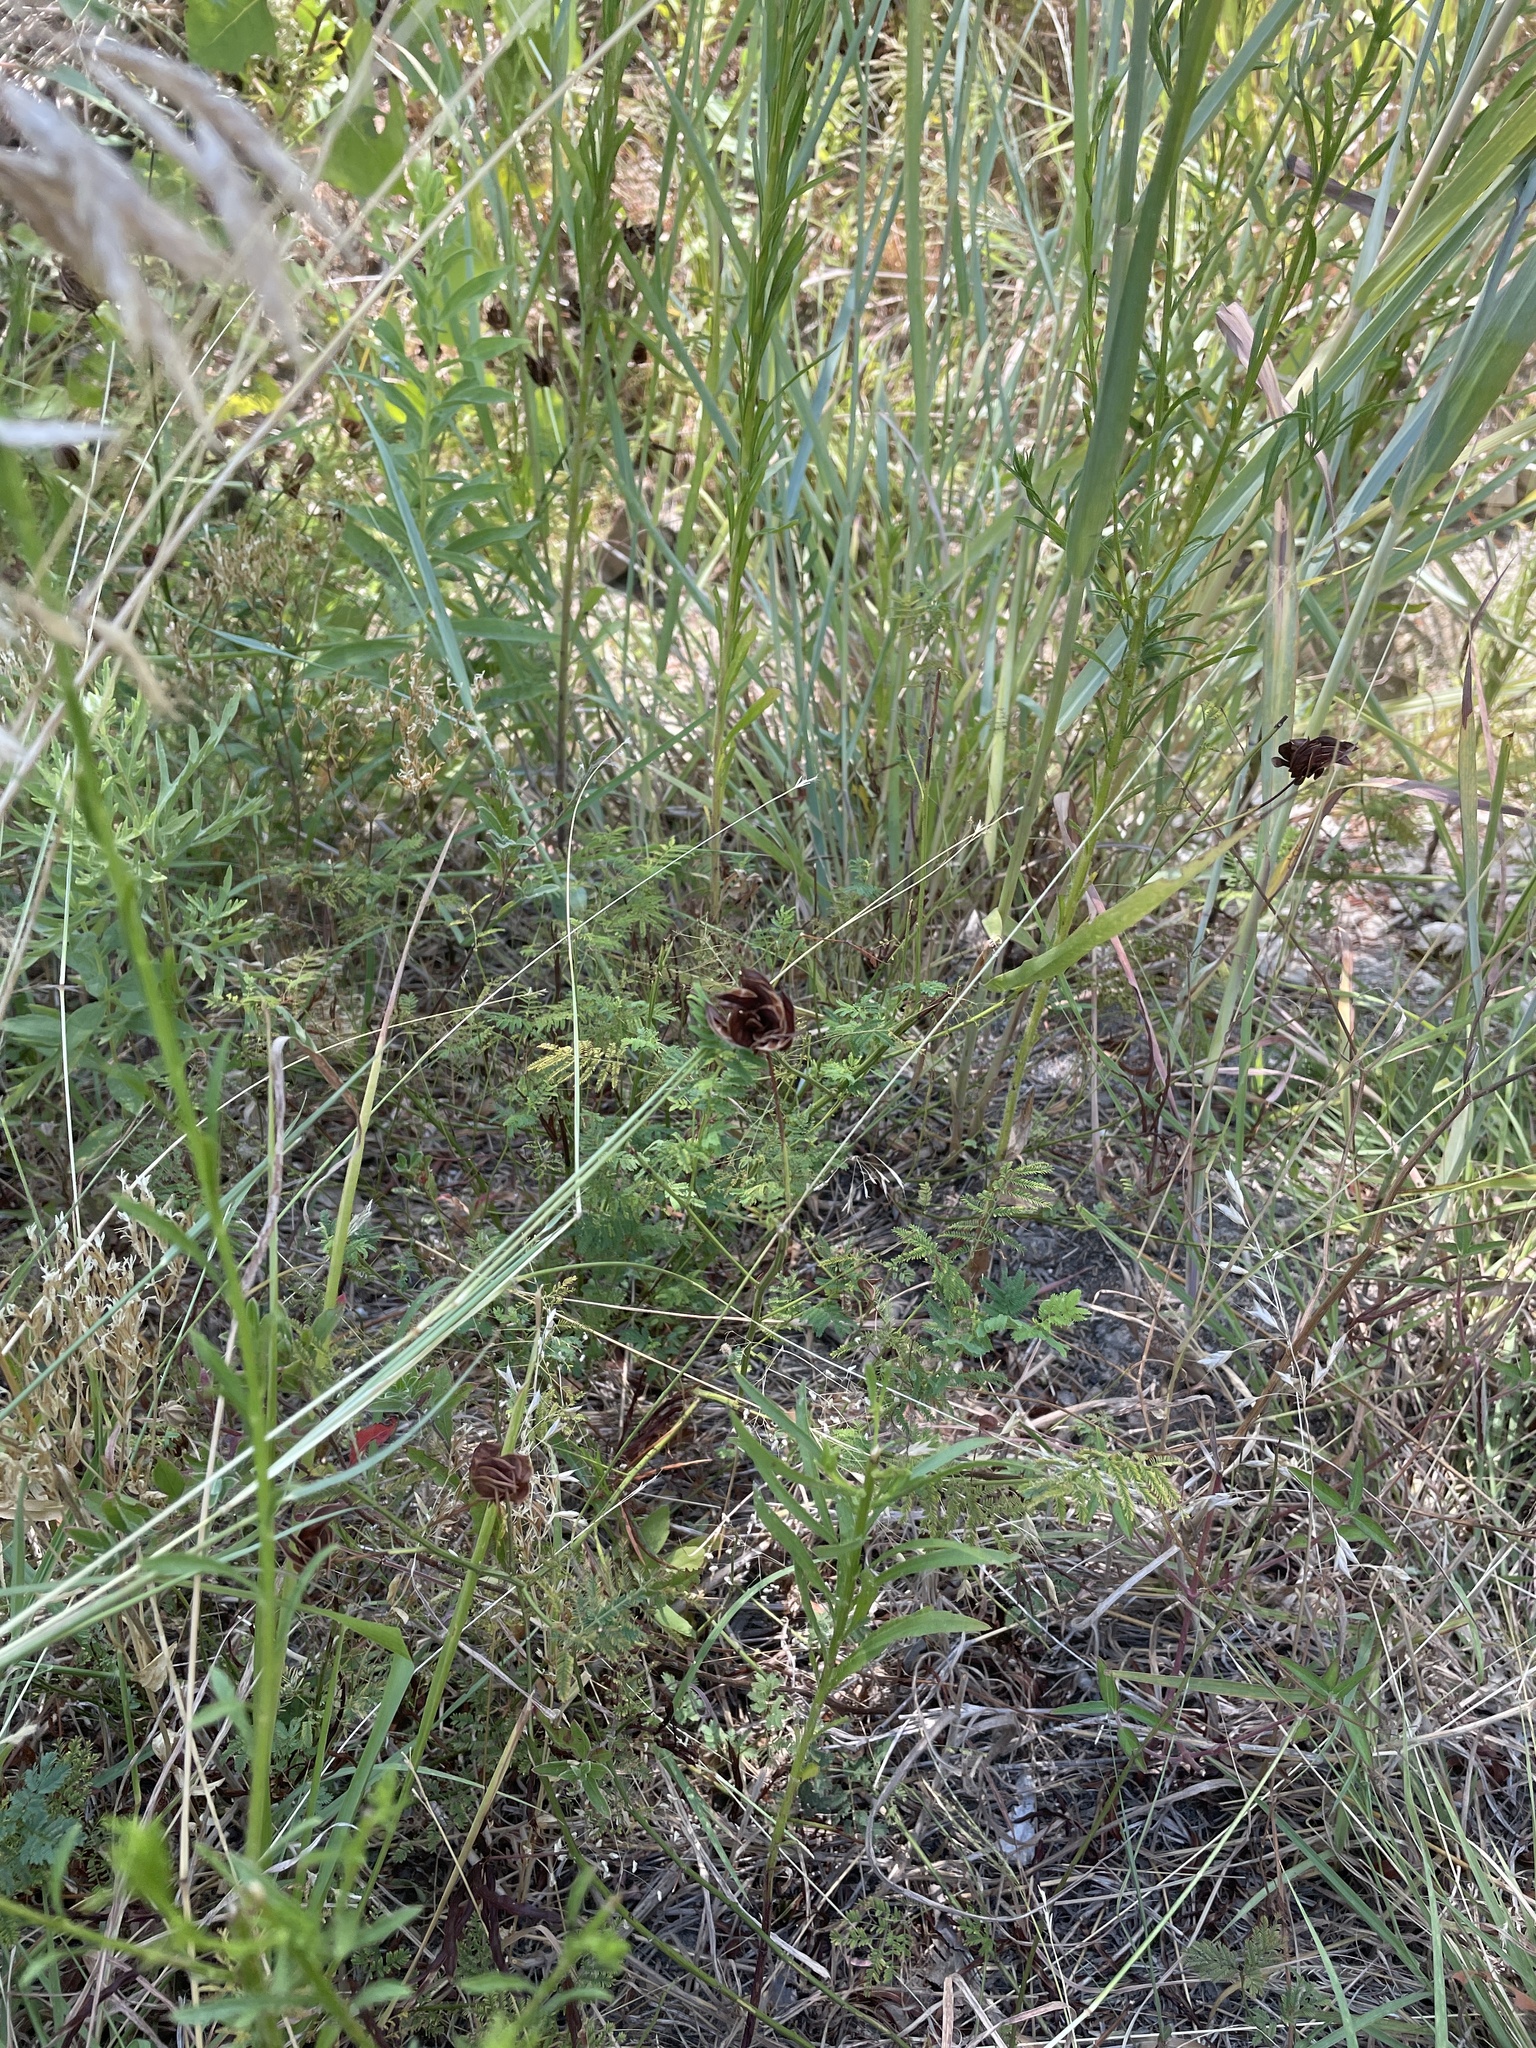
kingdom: Plantae
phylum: Tracheophyta
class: Magnoliopsida
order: Fabales
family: Fabaceae
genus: Desmanthus
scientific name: Desmanthus illinoensis
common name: Illinois bundle-flower
